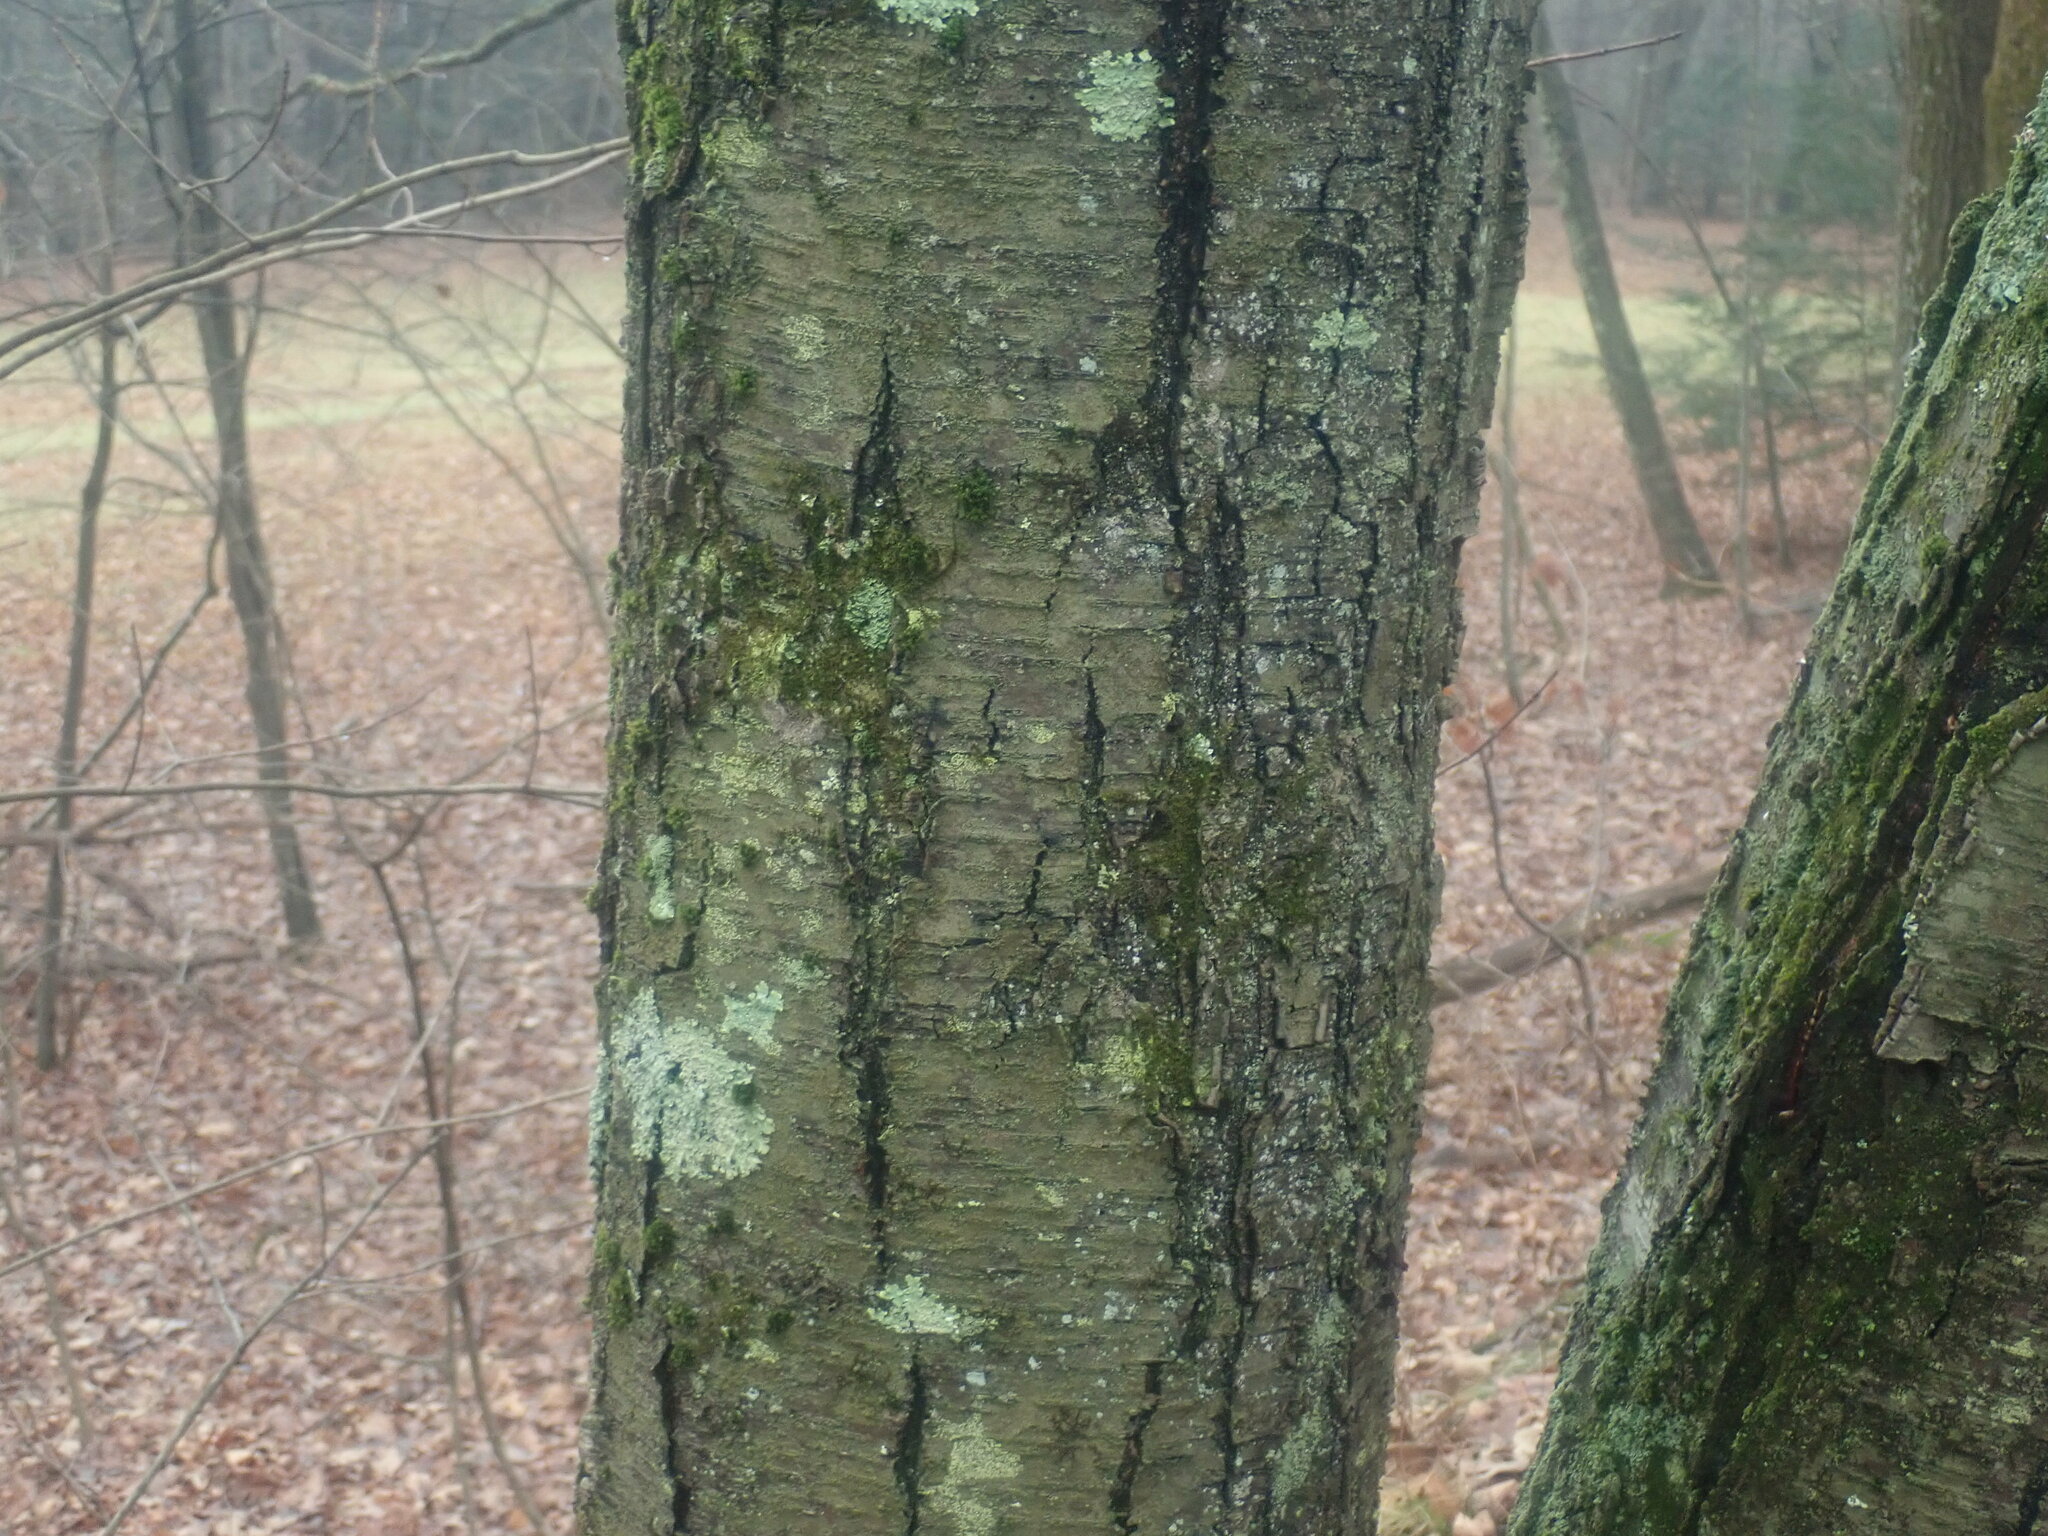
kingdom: Plantae
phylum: Tracheophyta
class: Magnoliopsida
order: Fagales
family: Betulaceae
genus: Betula
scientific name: Betula lenta
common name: Black birch
